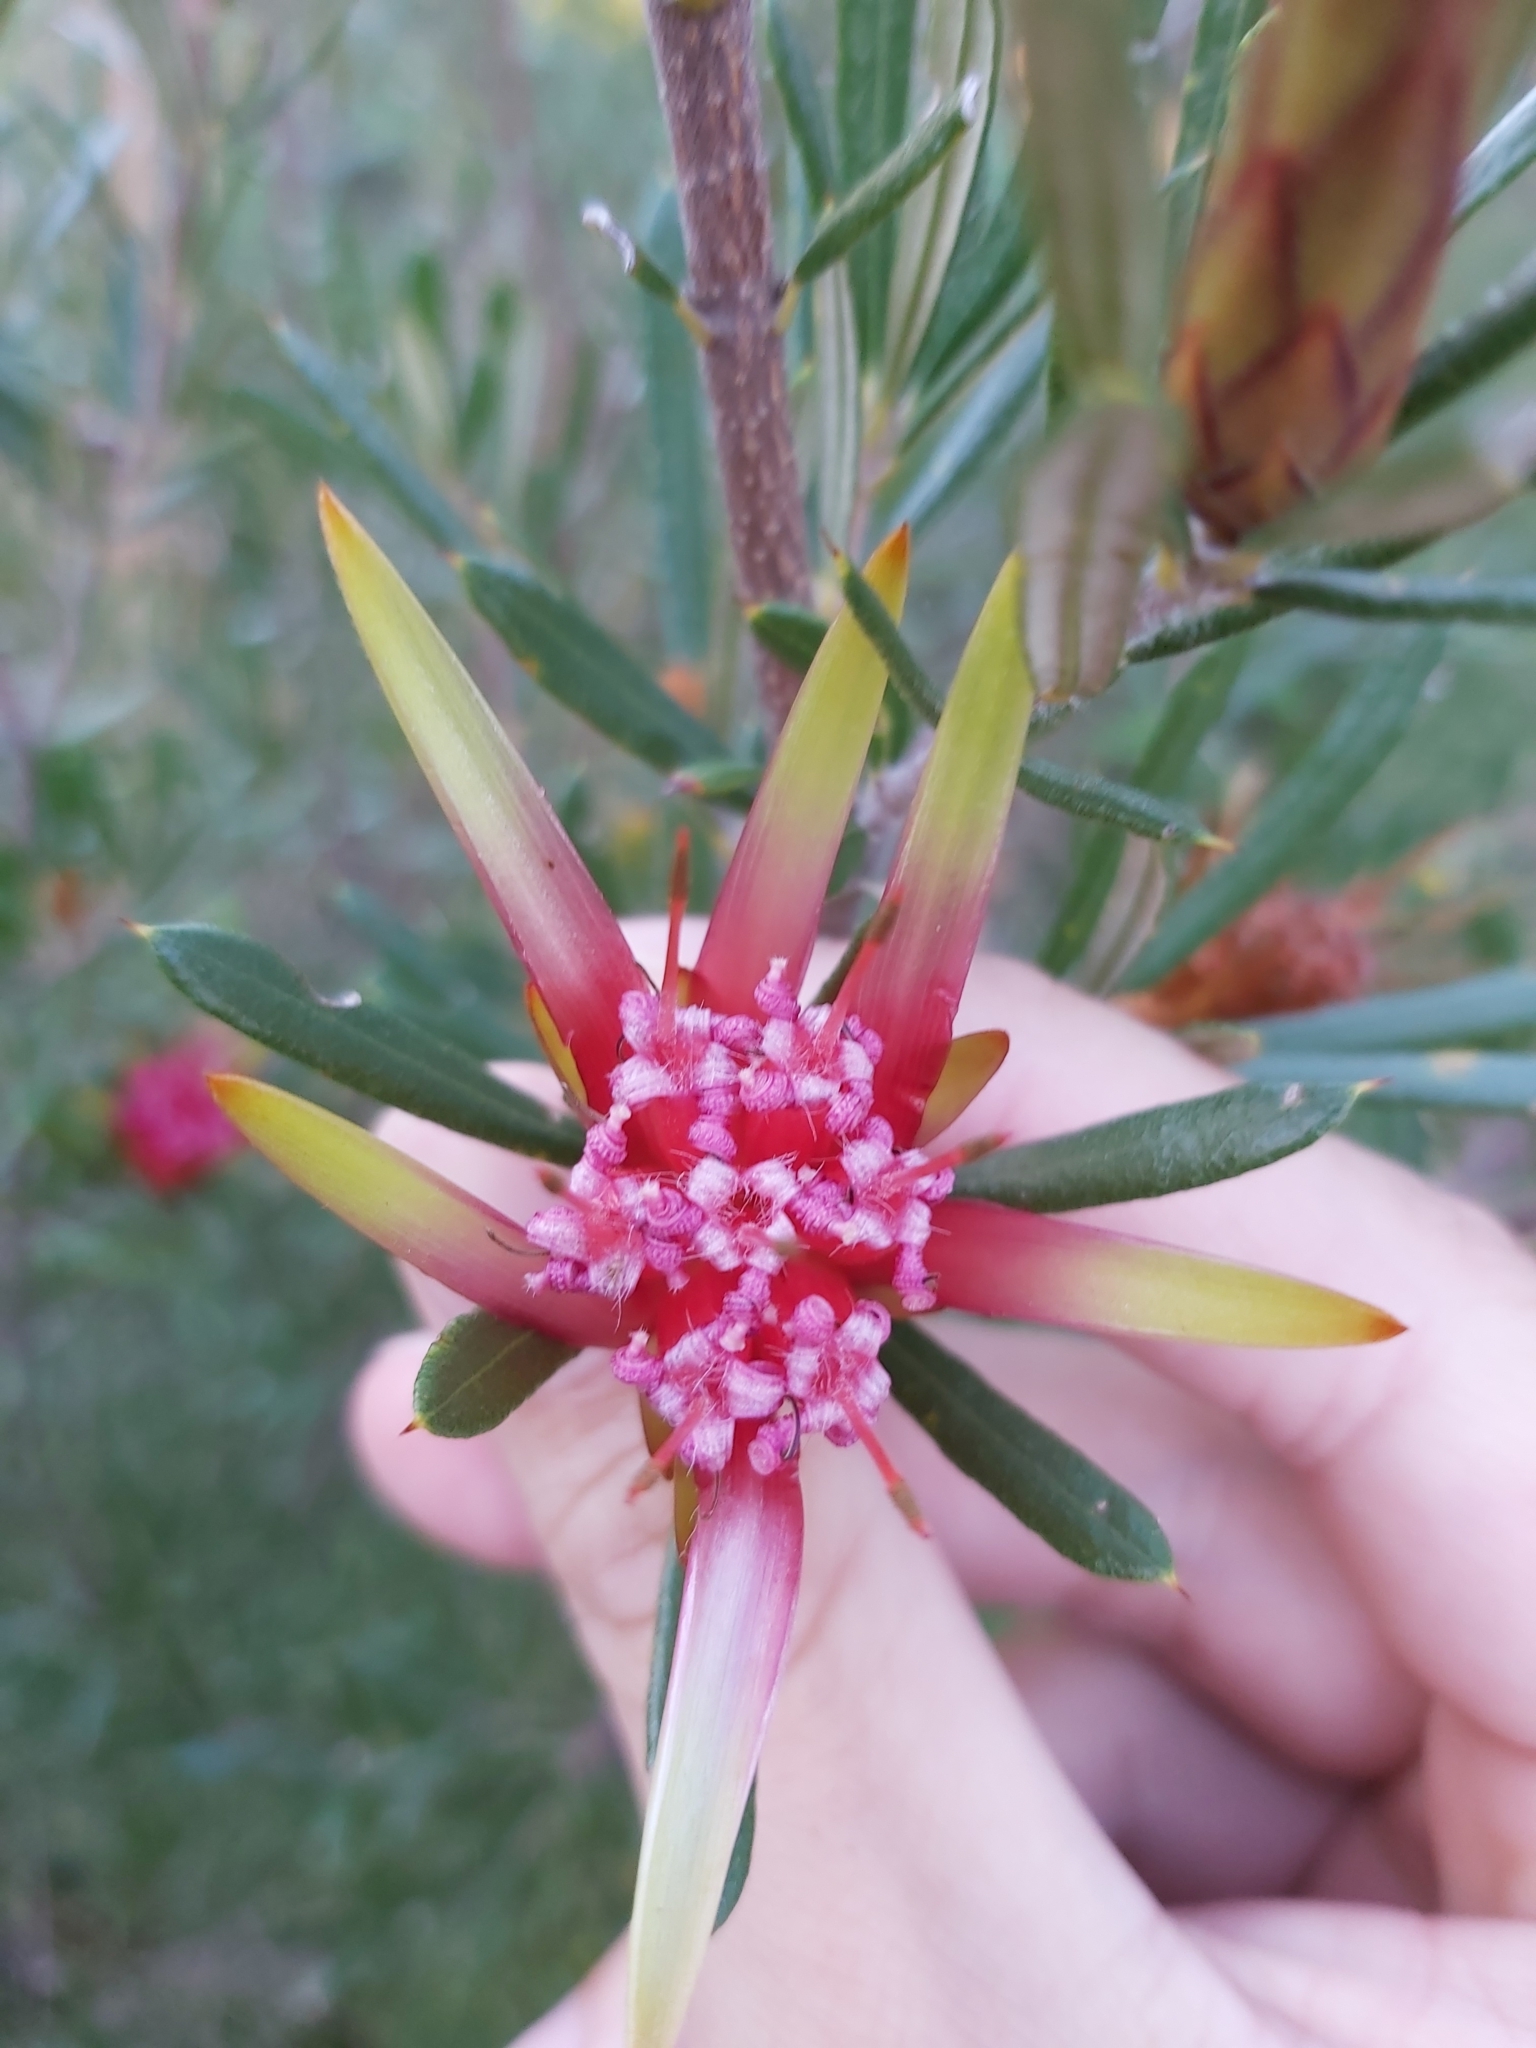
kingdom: Plantae
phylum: Tracheophyta
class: Magnoliopsida
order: Proteales
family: Proteaceae
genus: Lambertia
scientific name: Lambertia formosa
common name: Mountain-devil
